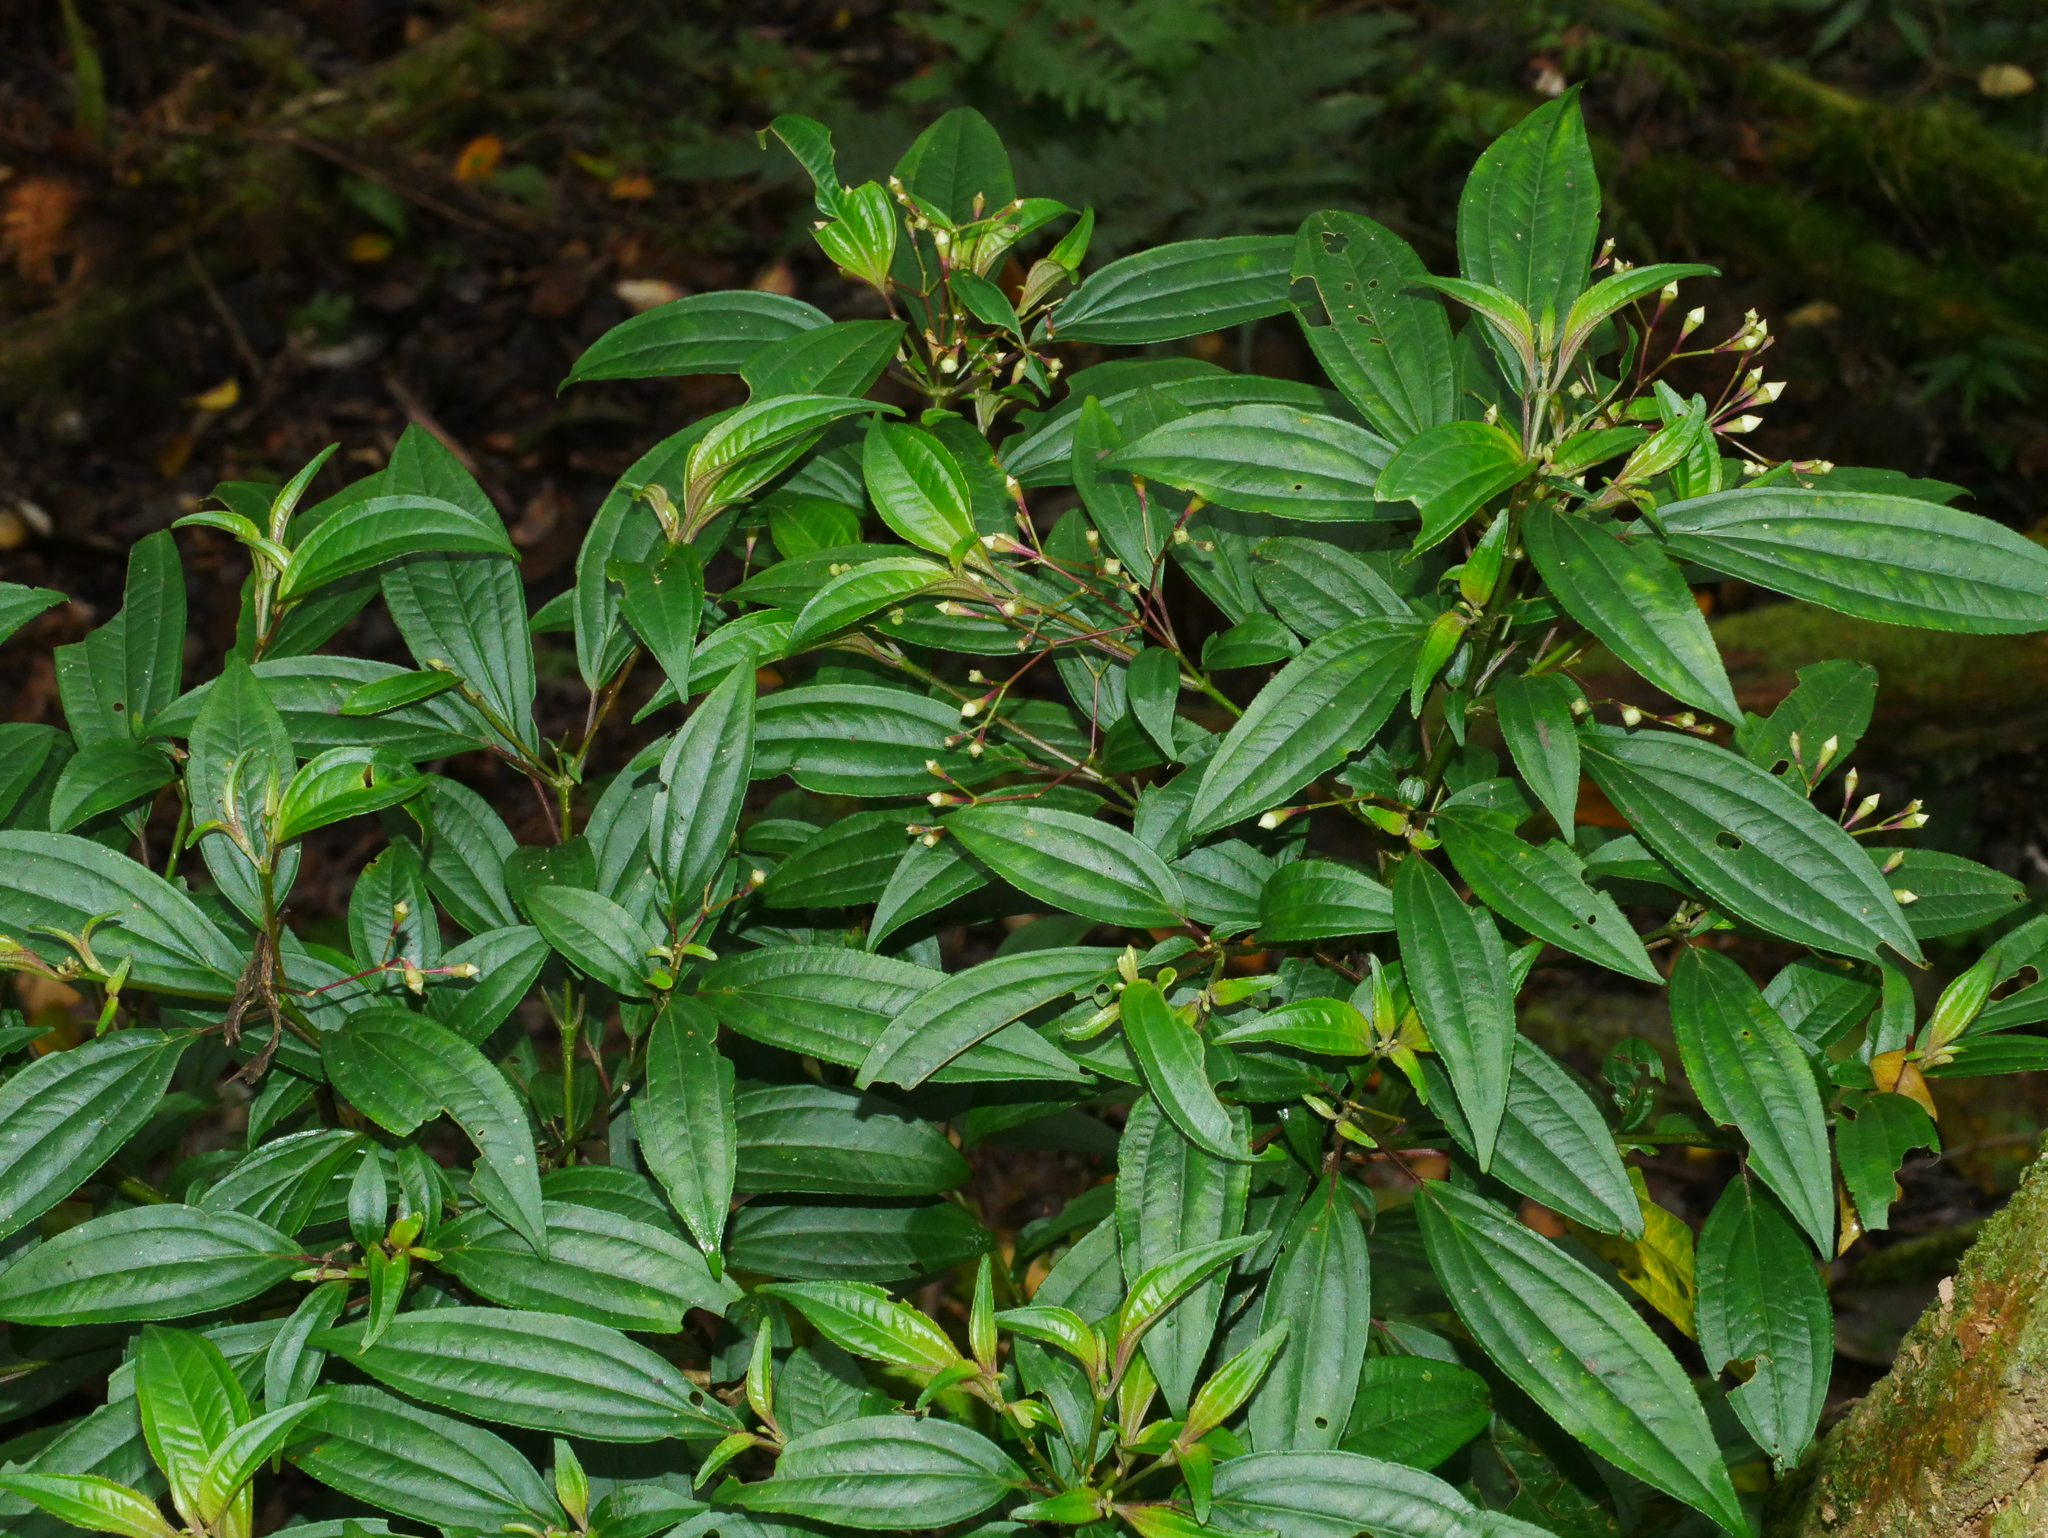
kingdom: Plantae
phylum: Tracheophyta
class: Magnoliopsida
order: Myrtales
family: Melastomataceae
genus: Bredia
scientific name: Bredia oldhamii
